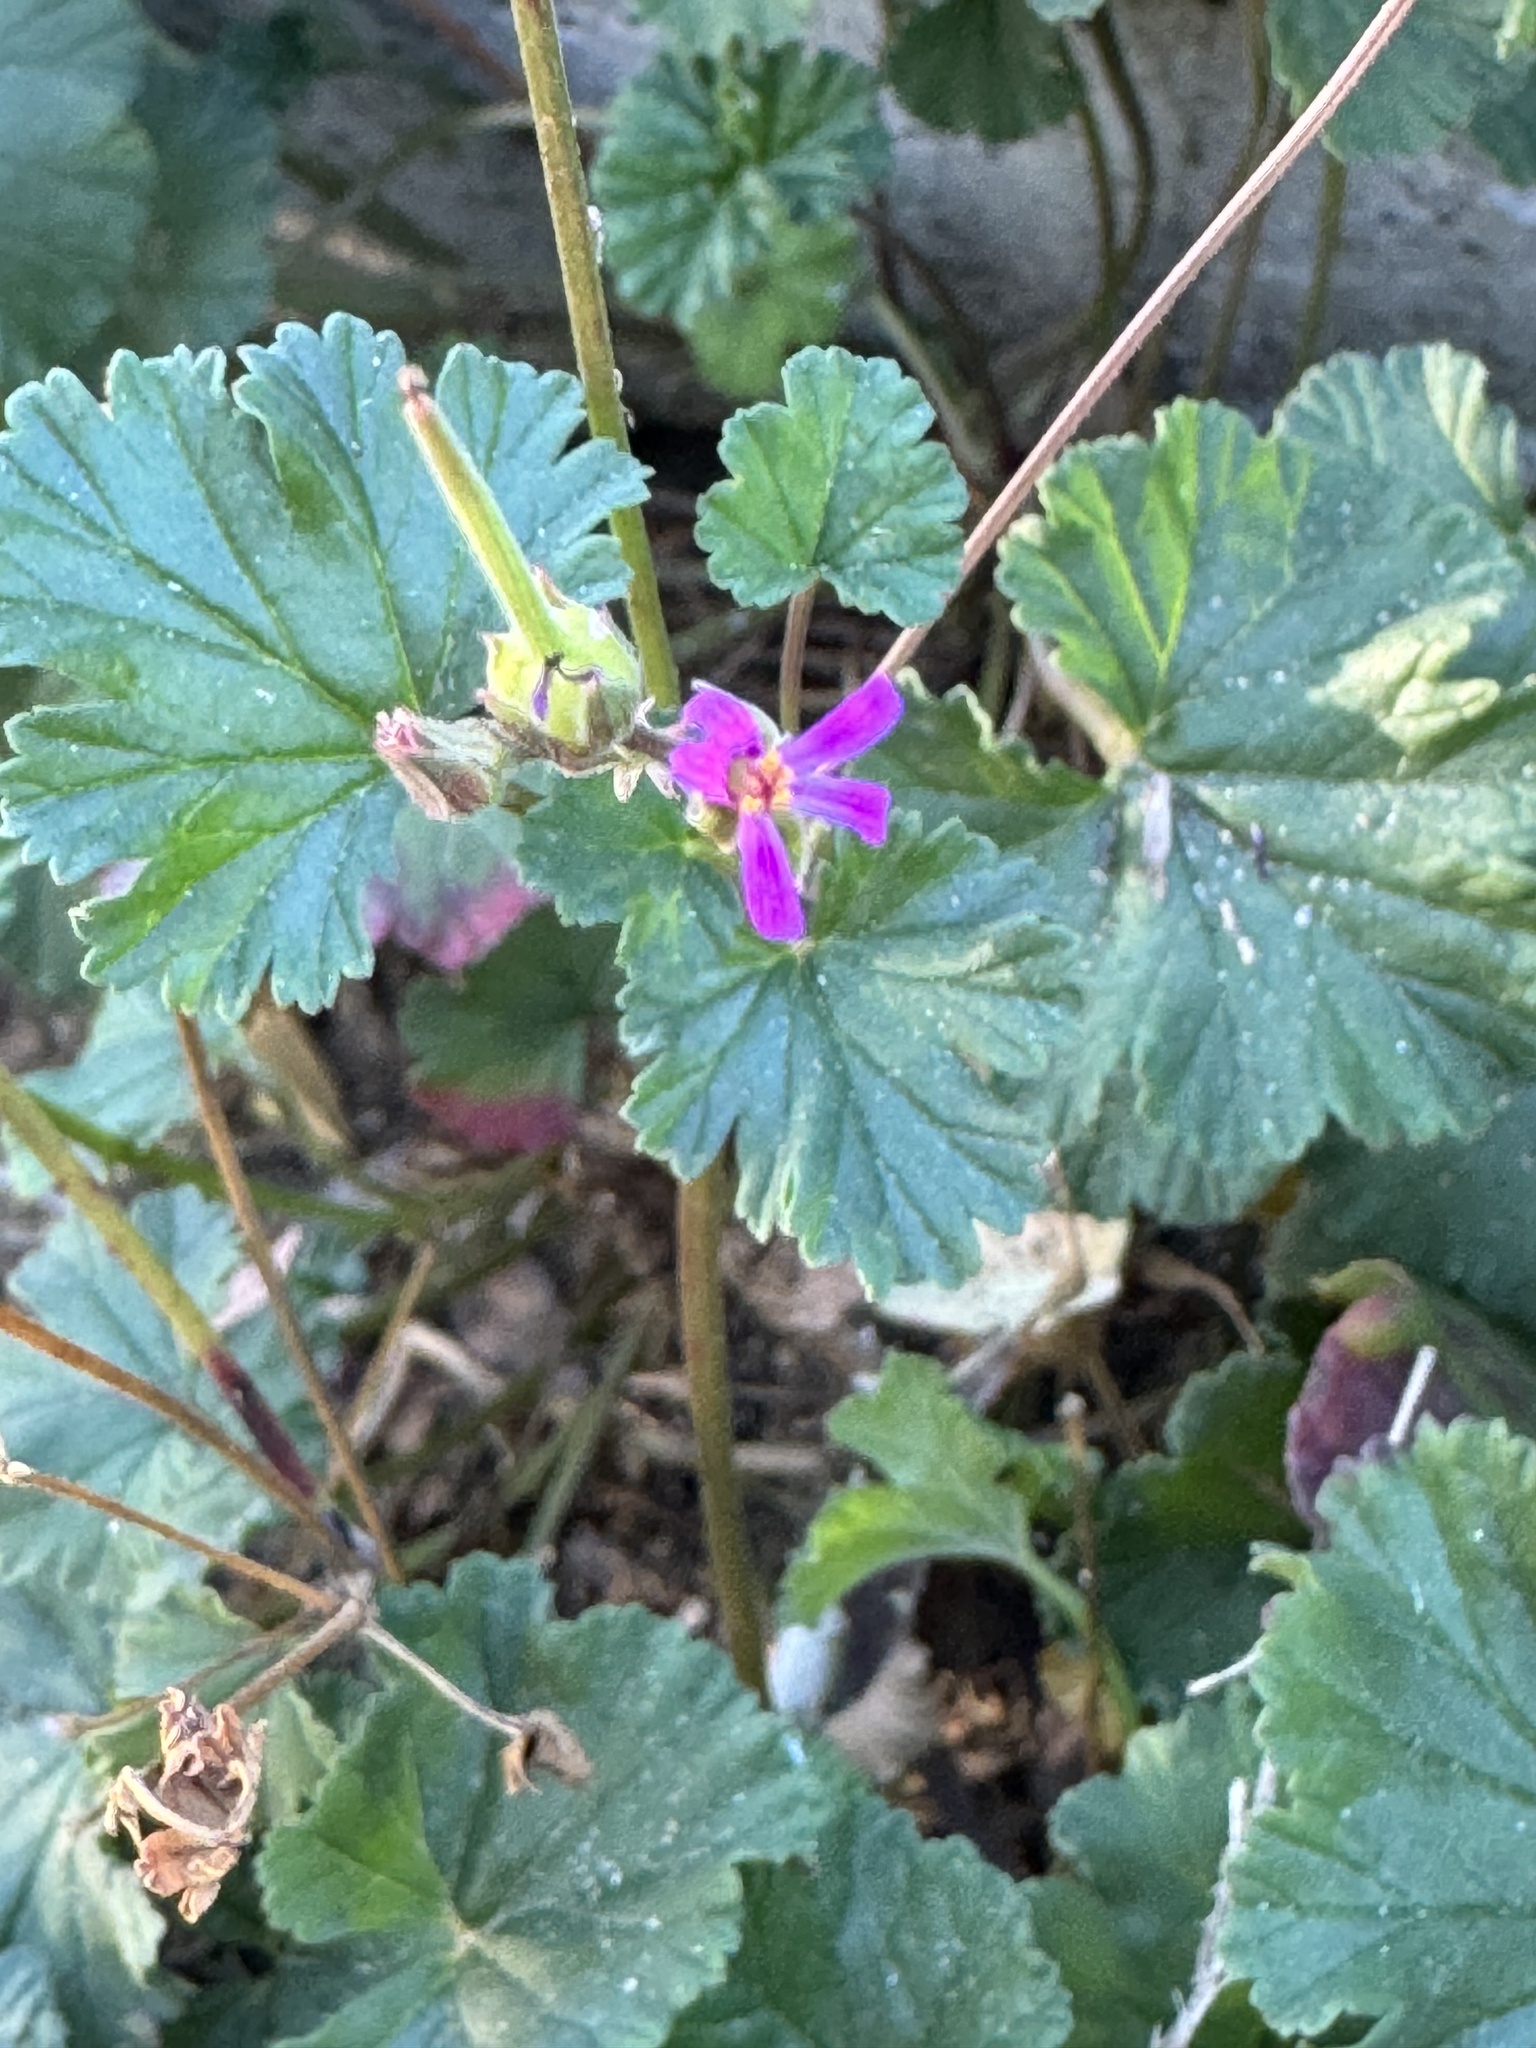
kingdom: Plantae
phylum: Tracheophyta
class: Magnoliopsida
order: Geraniales
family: Geraniaceae
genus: Erodium
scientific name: Erodium malacoides
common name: Soft stork's-bill
